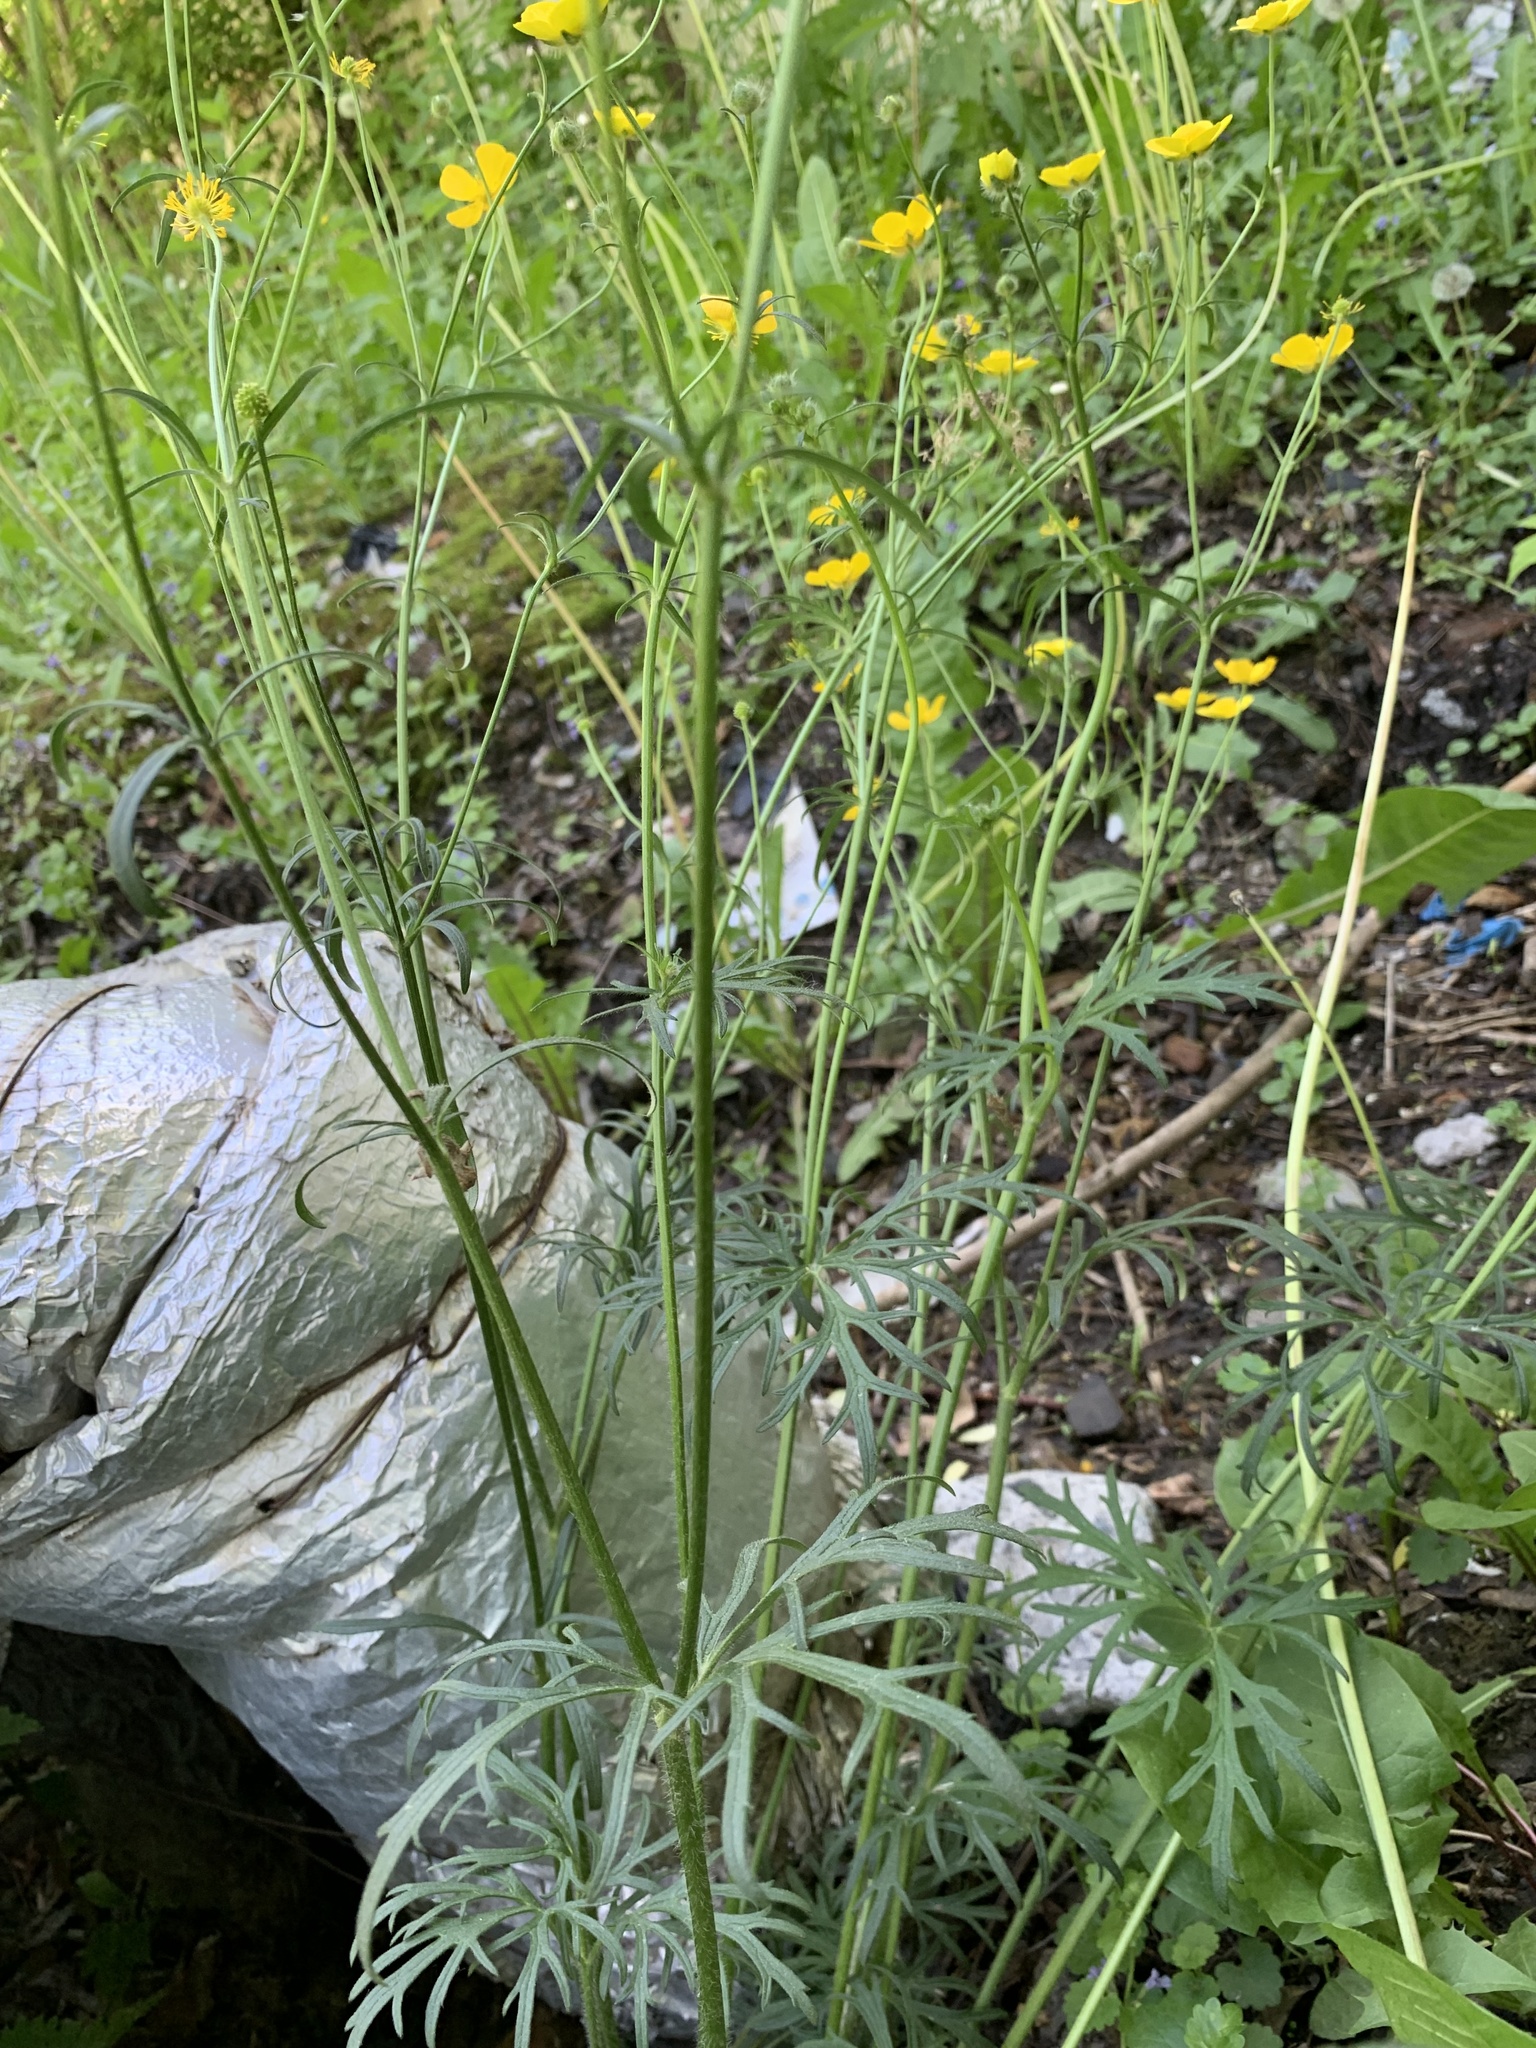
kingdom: Plantae
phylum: Tracheophyta
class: Magnoliopsida
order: Ranunculales
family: Ranunculaceae
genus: Ranunculus
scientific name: Ranunculus polyanthemos
